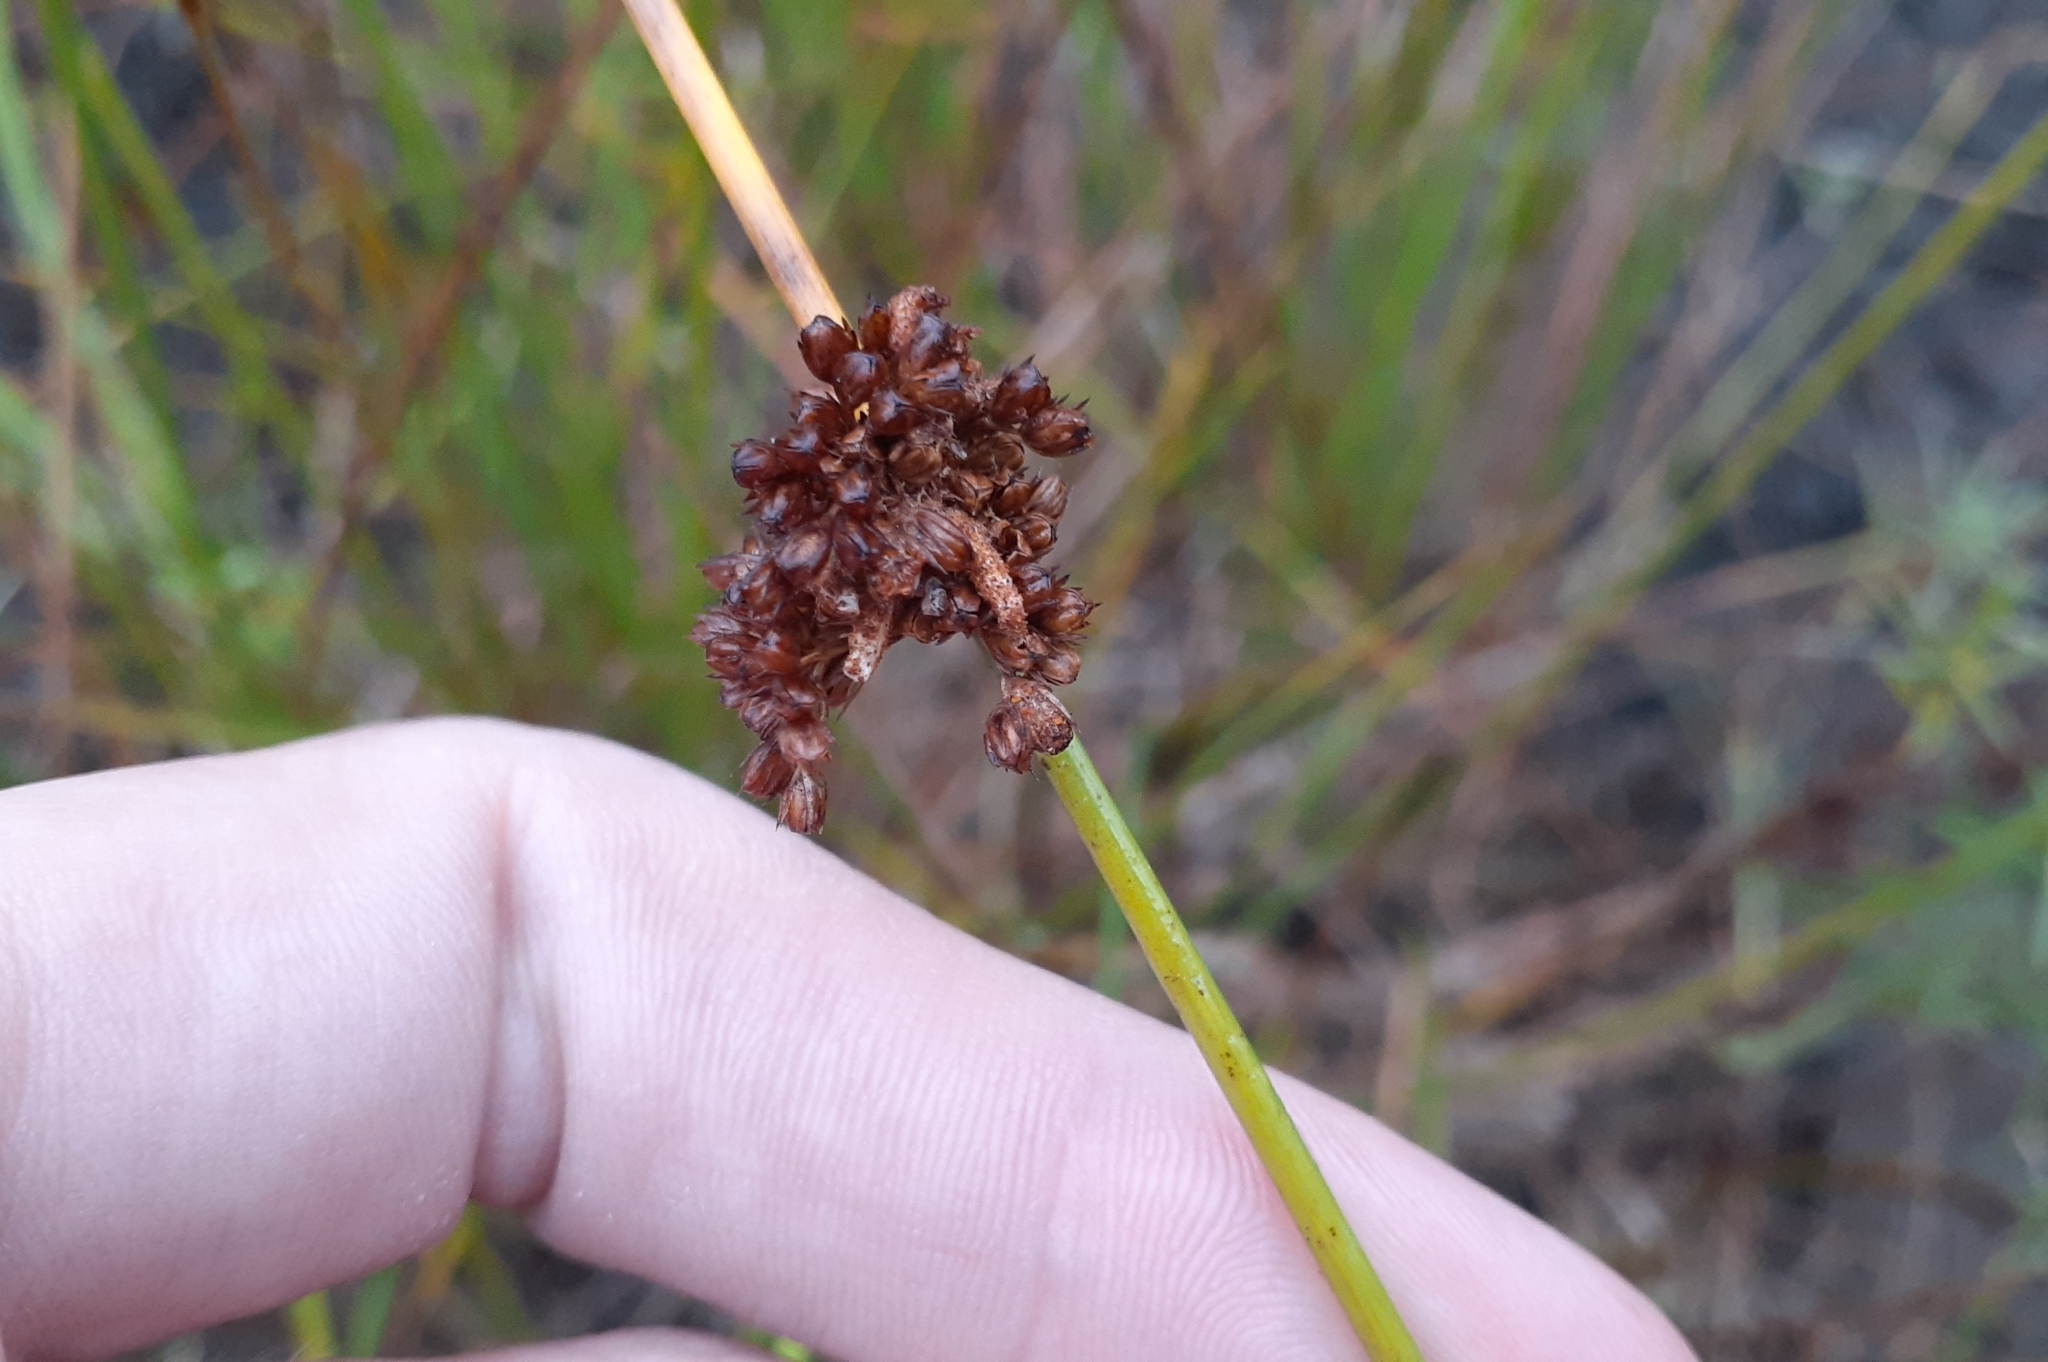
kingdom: Plantae
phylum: Tracheophyta
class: Liliopsida
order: Poales
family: Juncaceae
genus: Juncus
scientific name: Juncus effusus
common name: Soft rush
